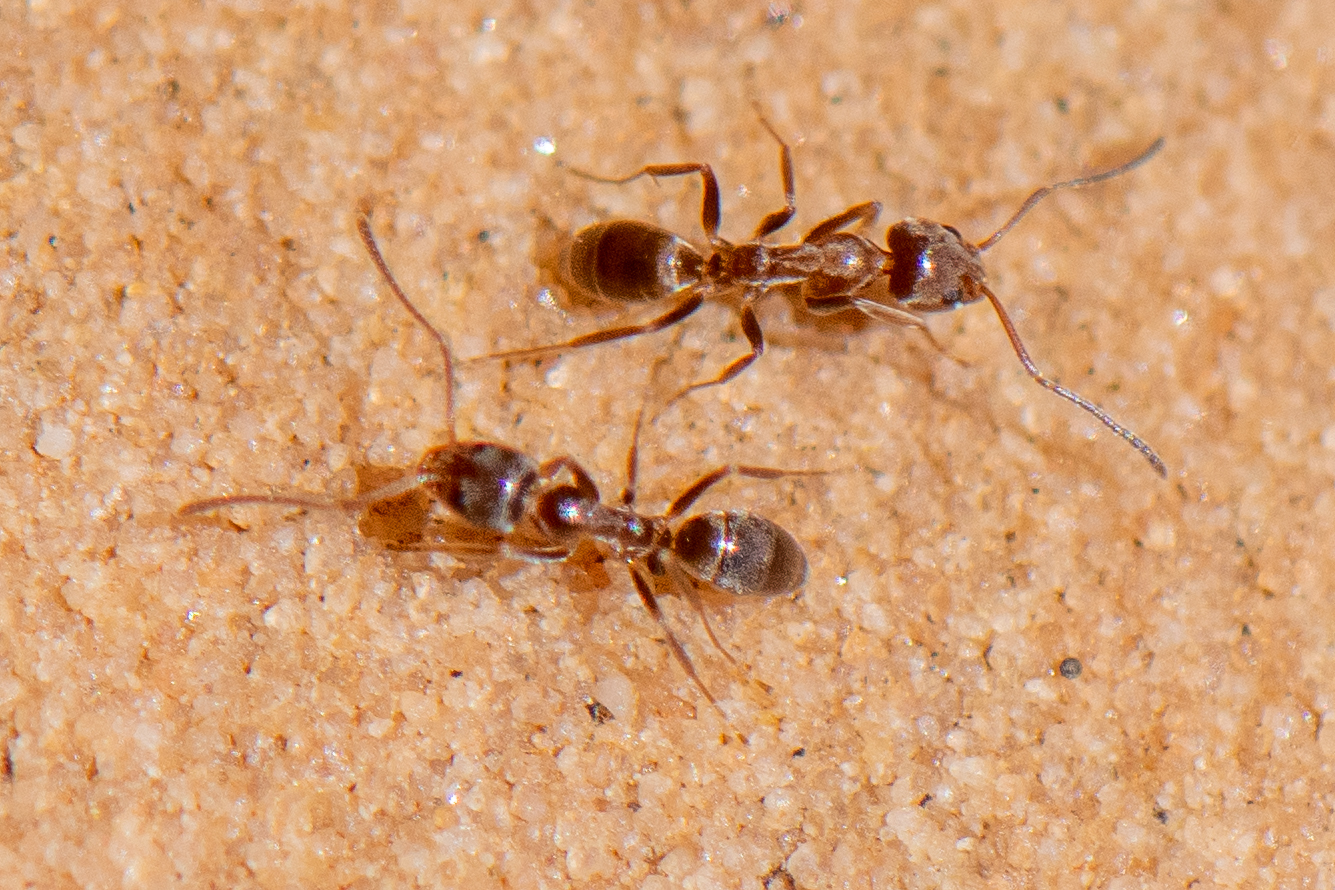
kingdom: Animalia
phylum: Arthropoda
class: Insecta
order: Hymenoptera
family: Formicidae
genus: Linepithema
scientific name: Linepithema humile
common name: Argentine ant
